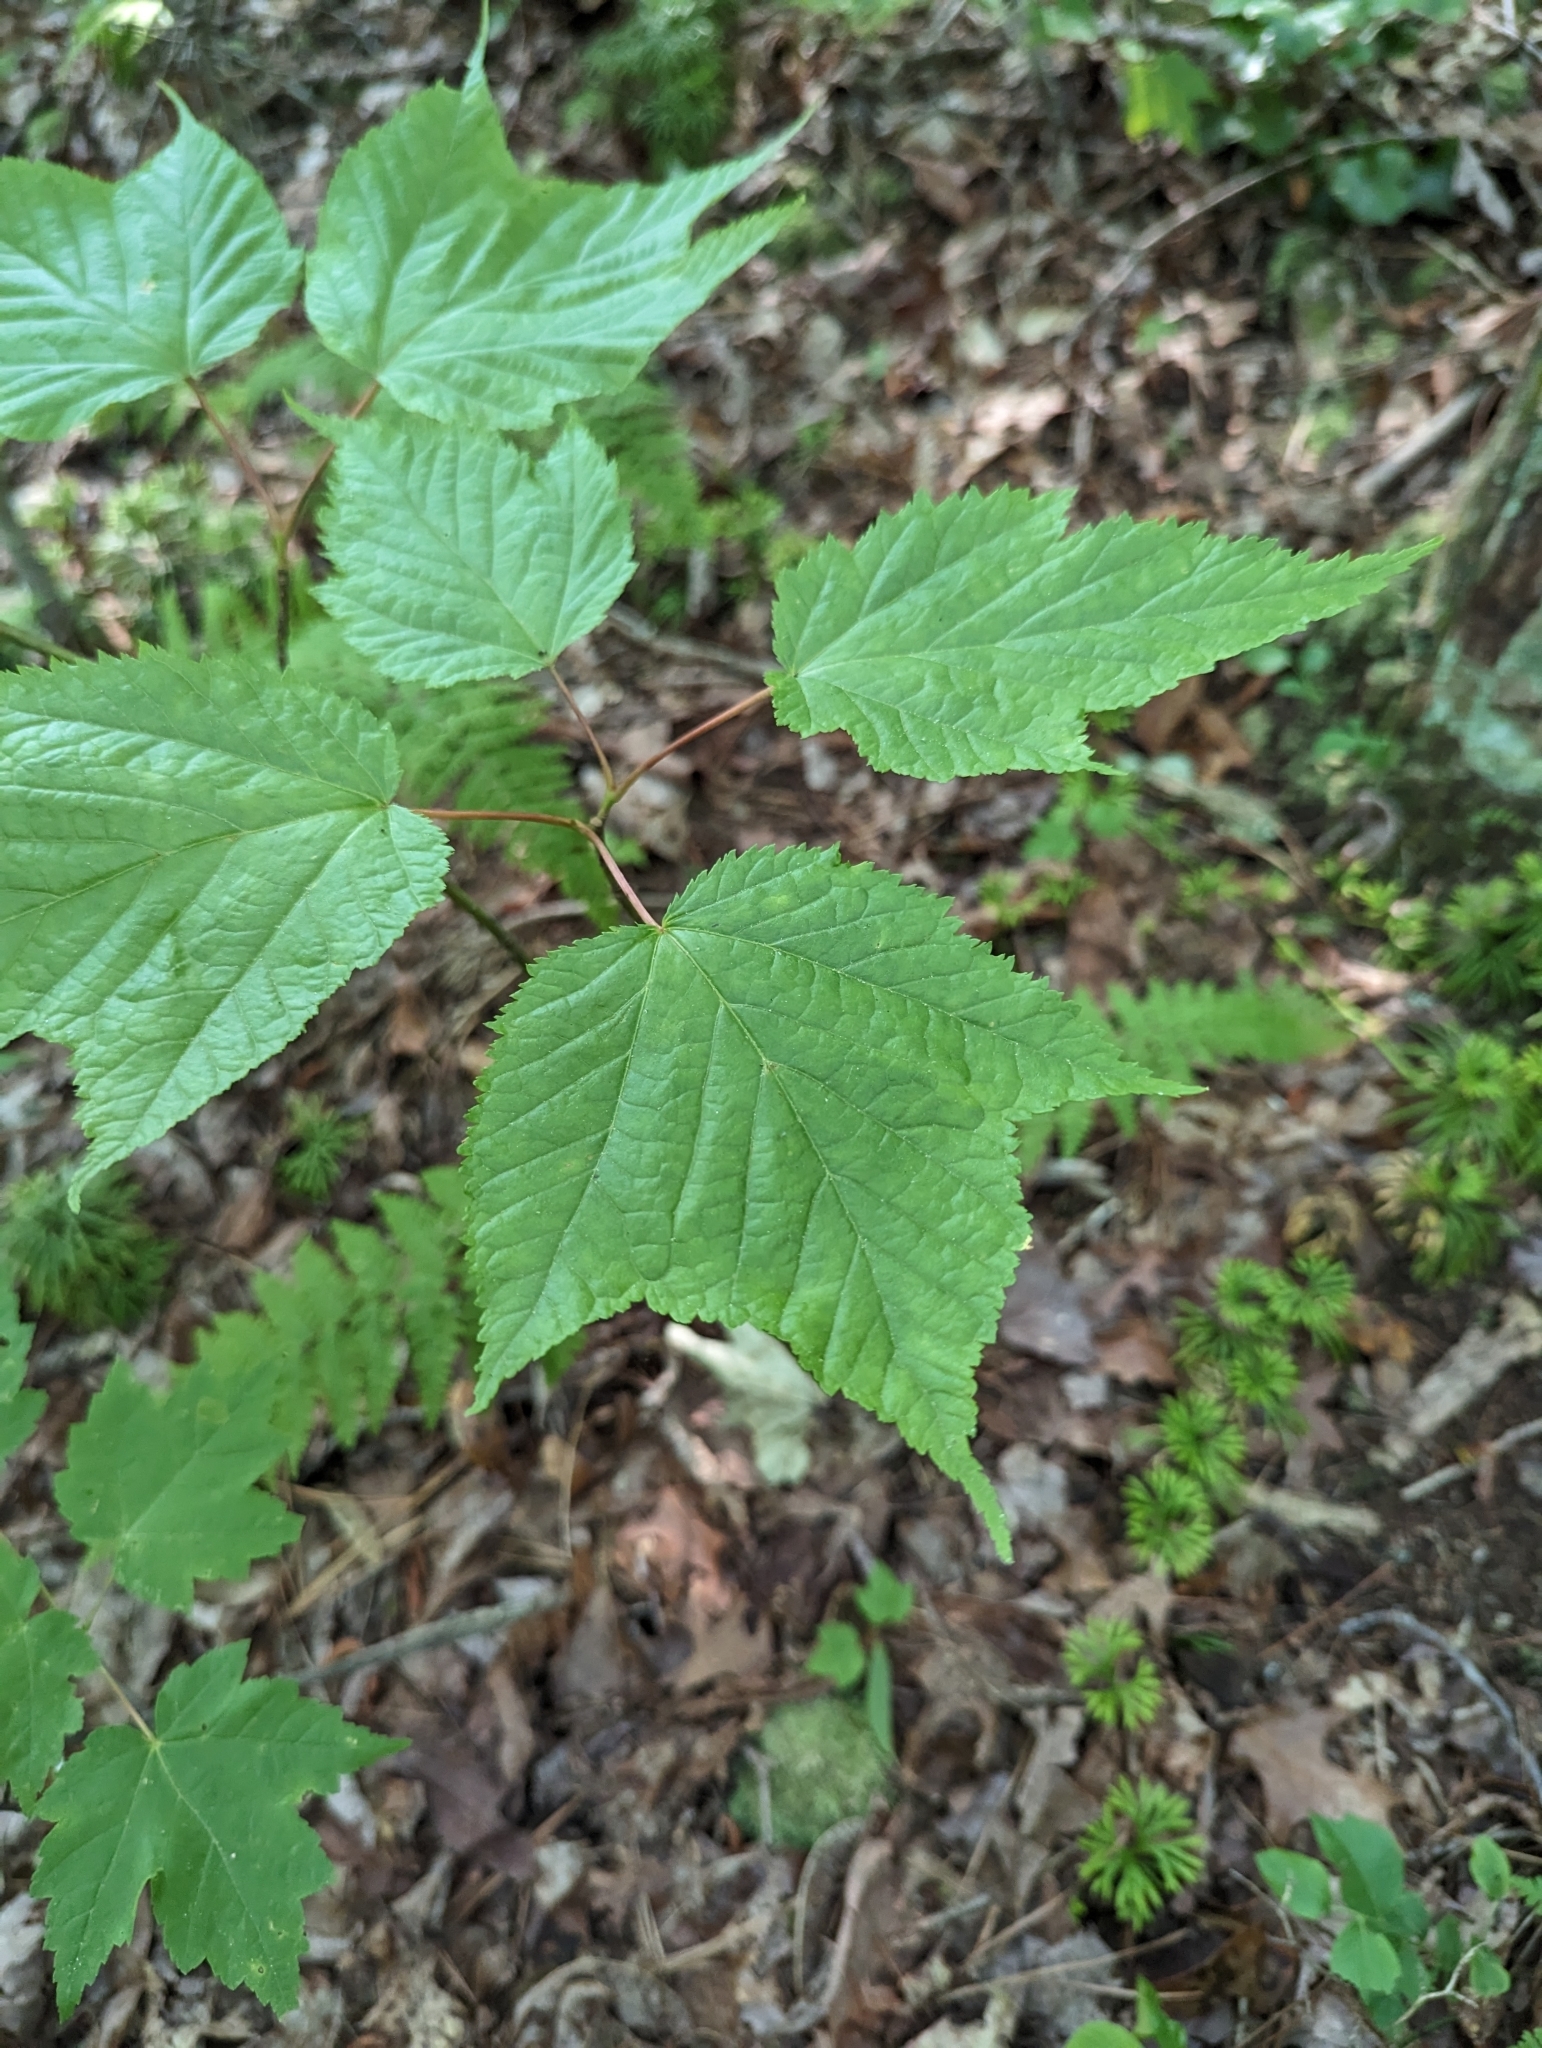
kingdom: Plantae
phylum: Tracheophyta
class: Magnoliopsida
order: Sapindales
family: Sapindaceae
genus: Acer
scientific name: Acer pensylvanicum
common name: Moosewood
